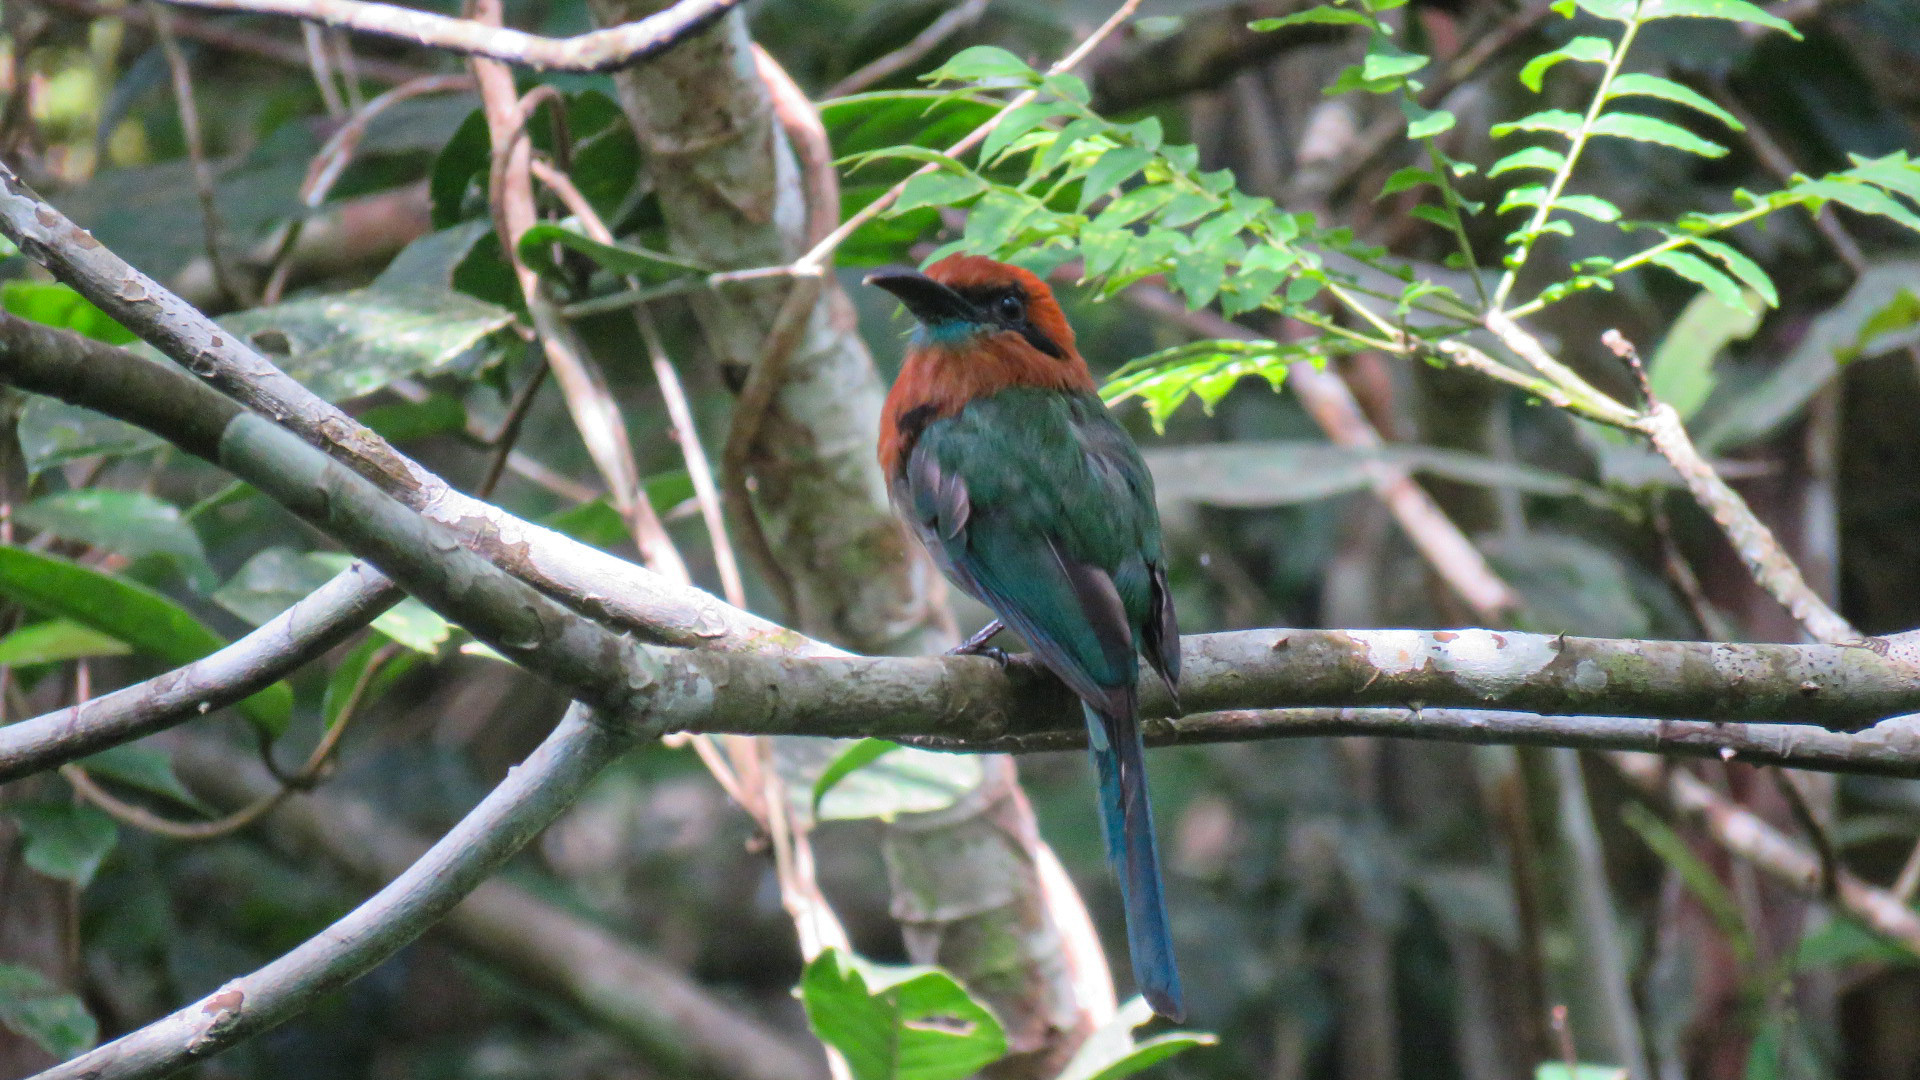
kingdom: Animalia
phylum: Chordata
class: Aves
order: Coraciiformes
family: Momotidae
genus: Electron
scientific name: Electron platyrhynchum
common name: Broad-billed motmot
